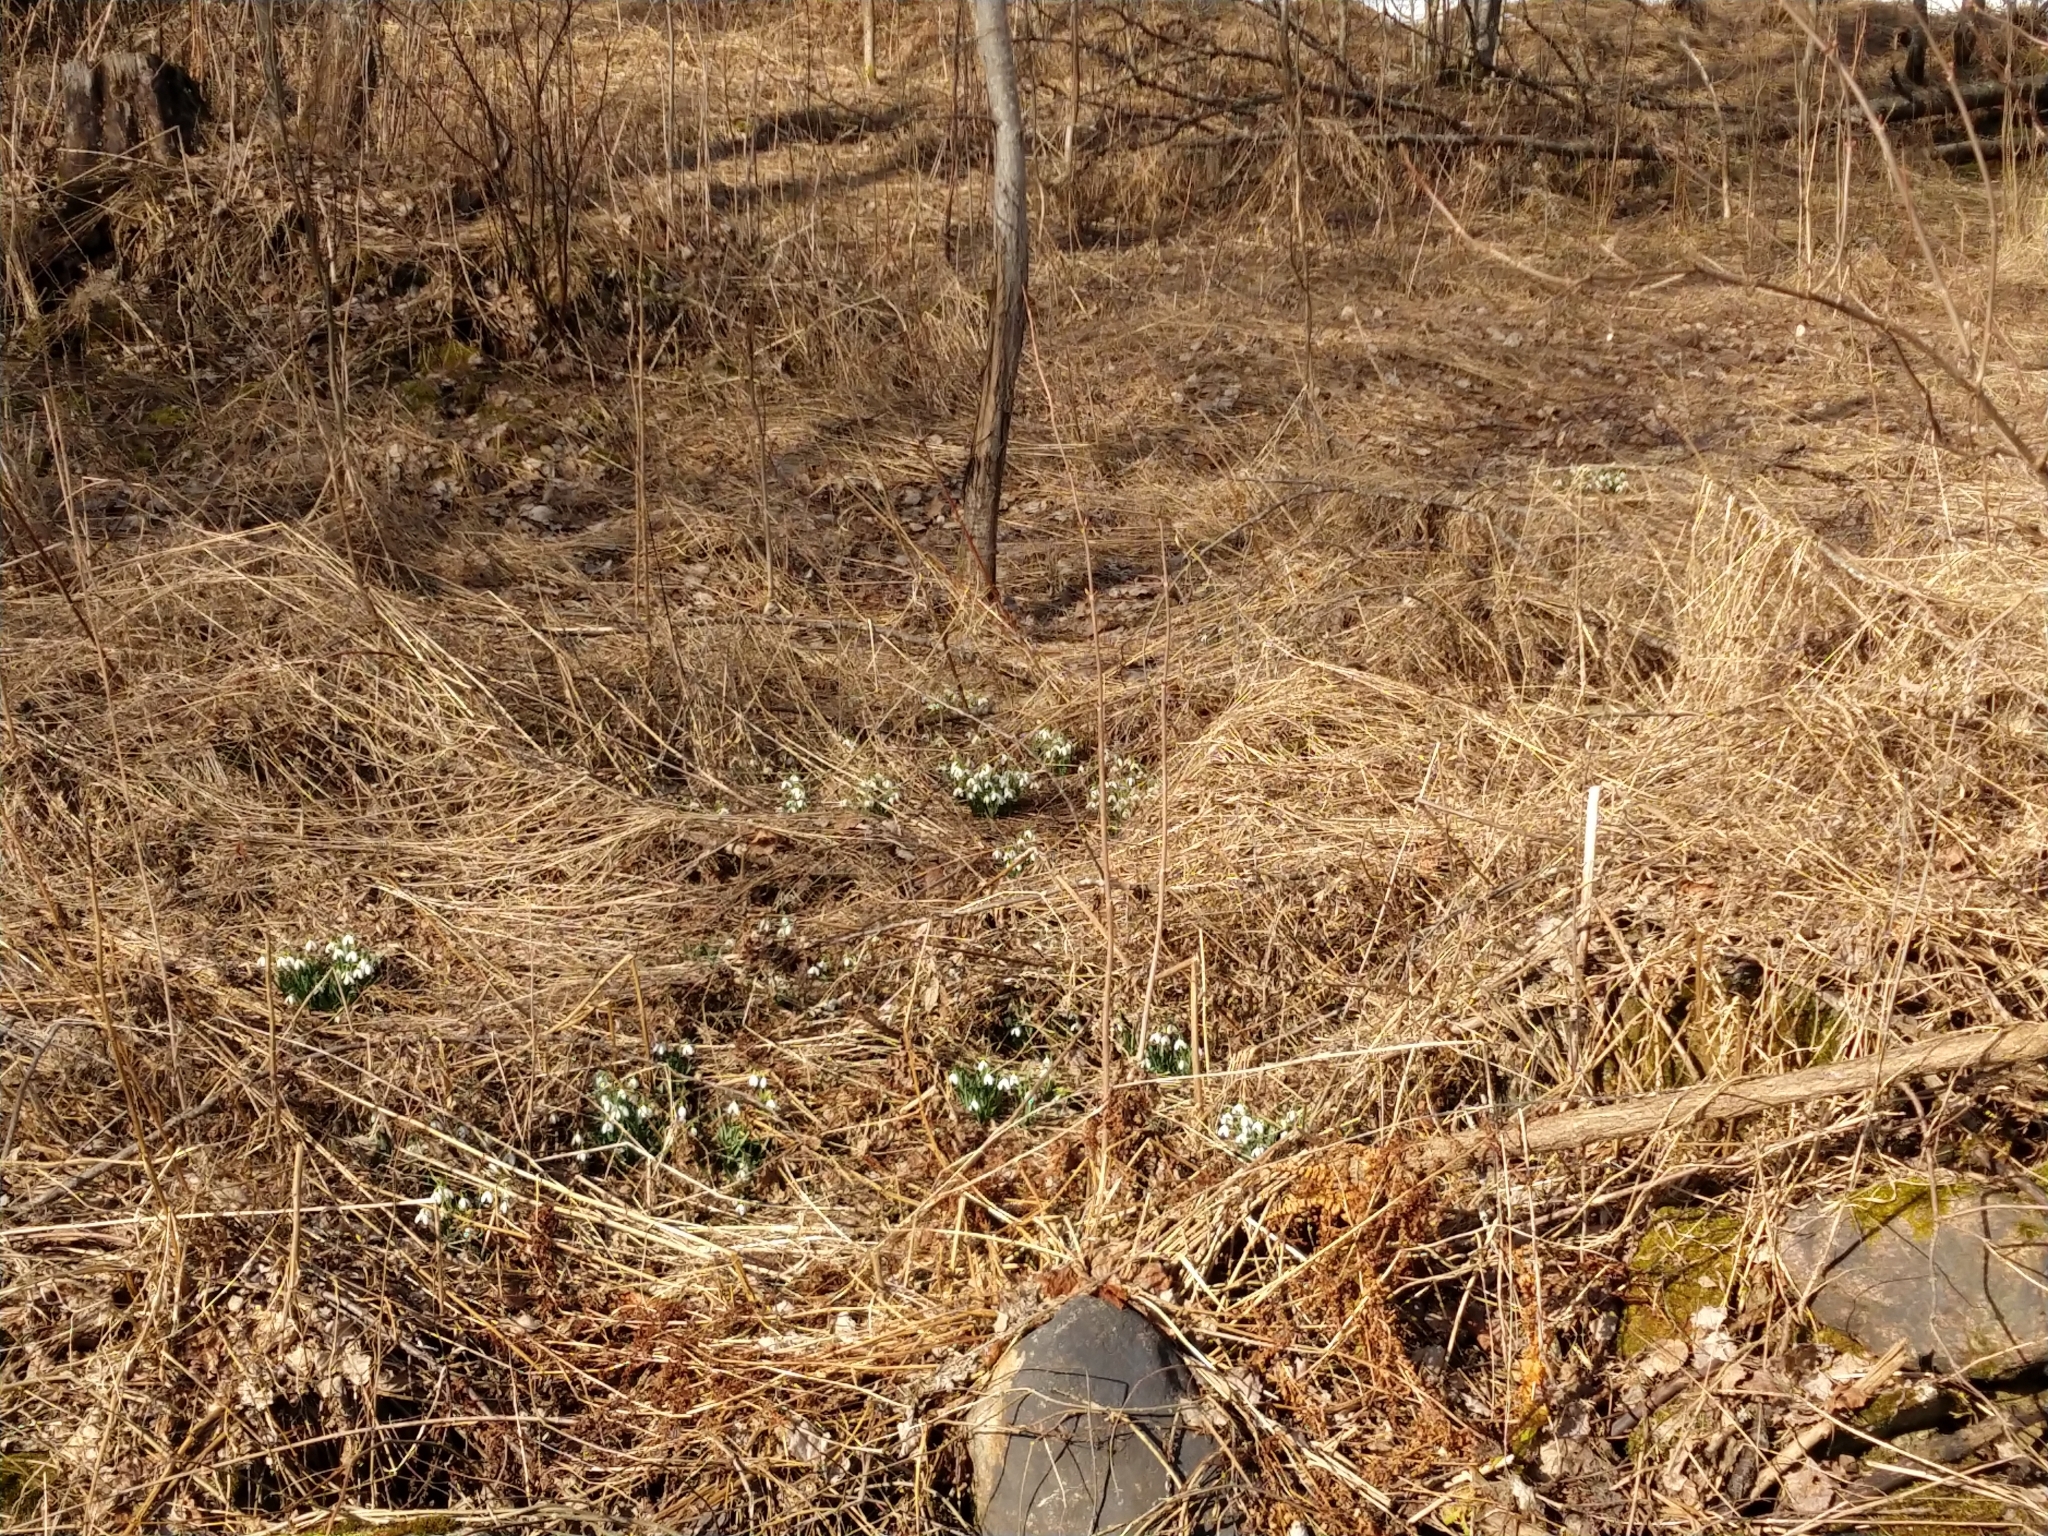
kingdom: Plantae
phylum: Tracheophyta
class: Liliopsida
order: Asparagales
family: Amaryllidaceae
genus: Galanthus
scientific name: Galanthus nivalis
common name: Snowdrop
